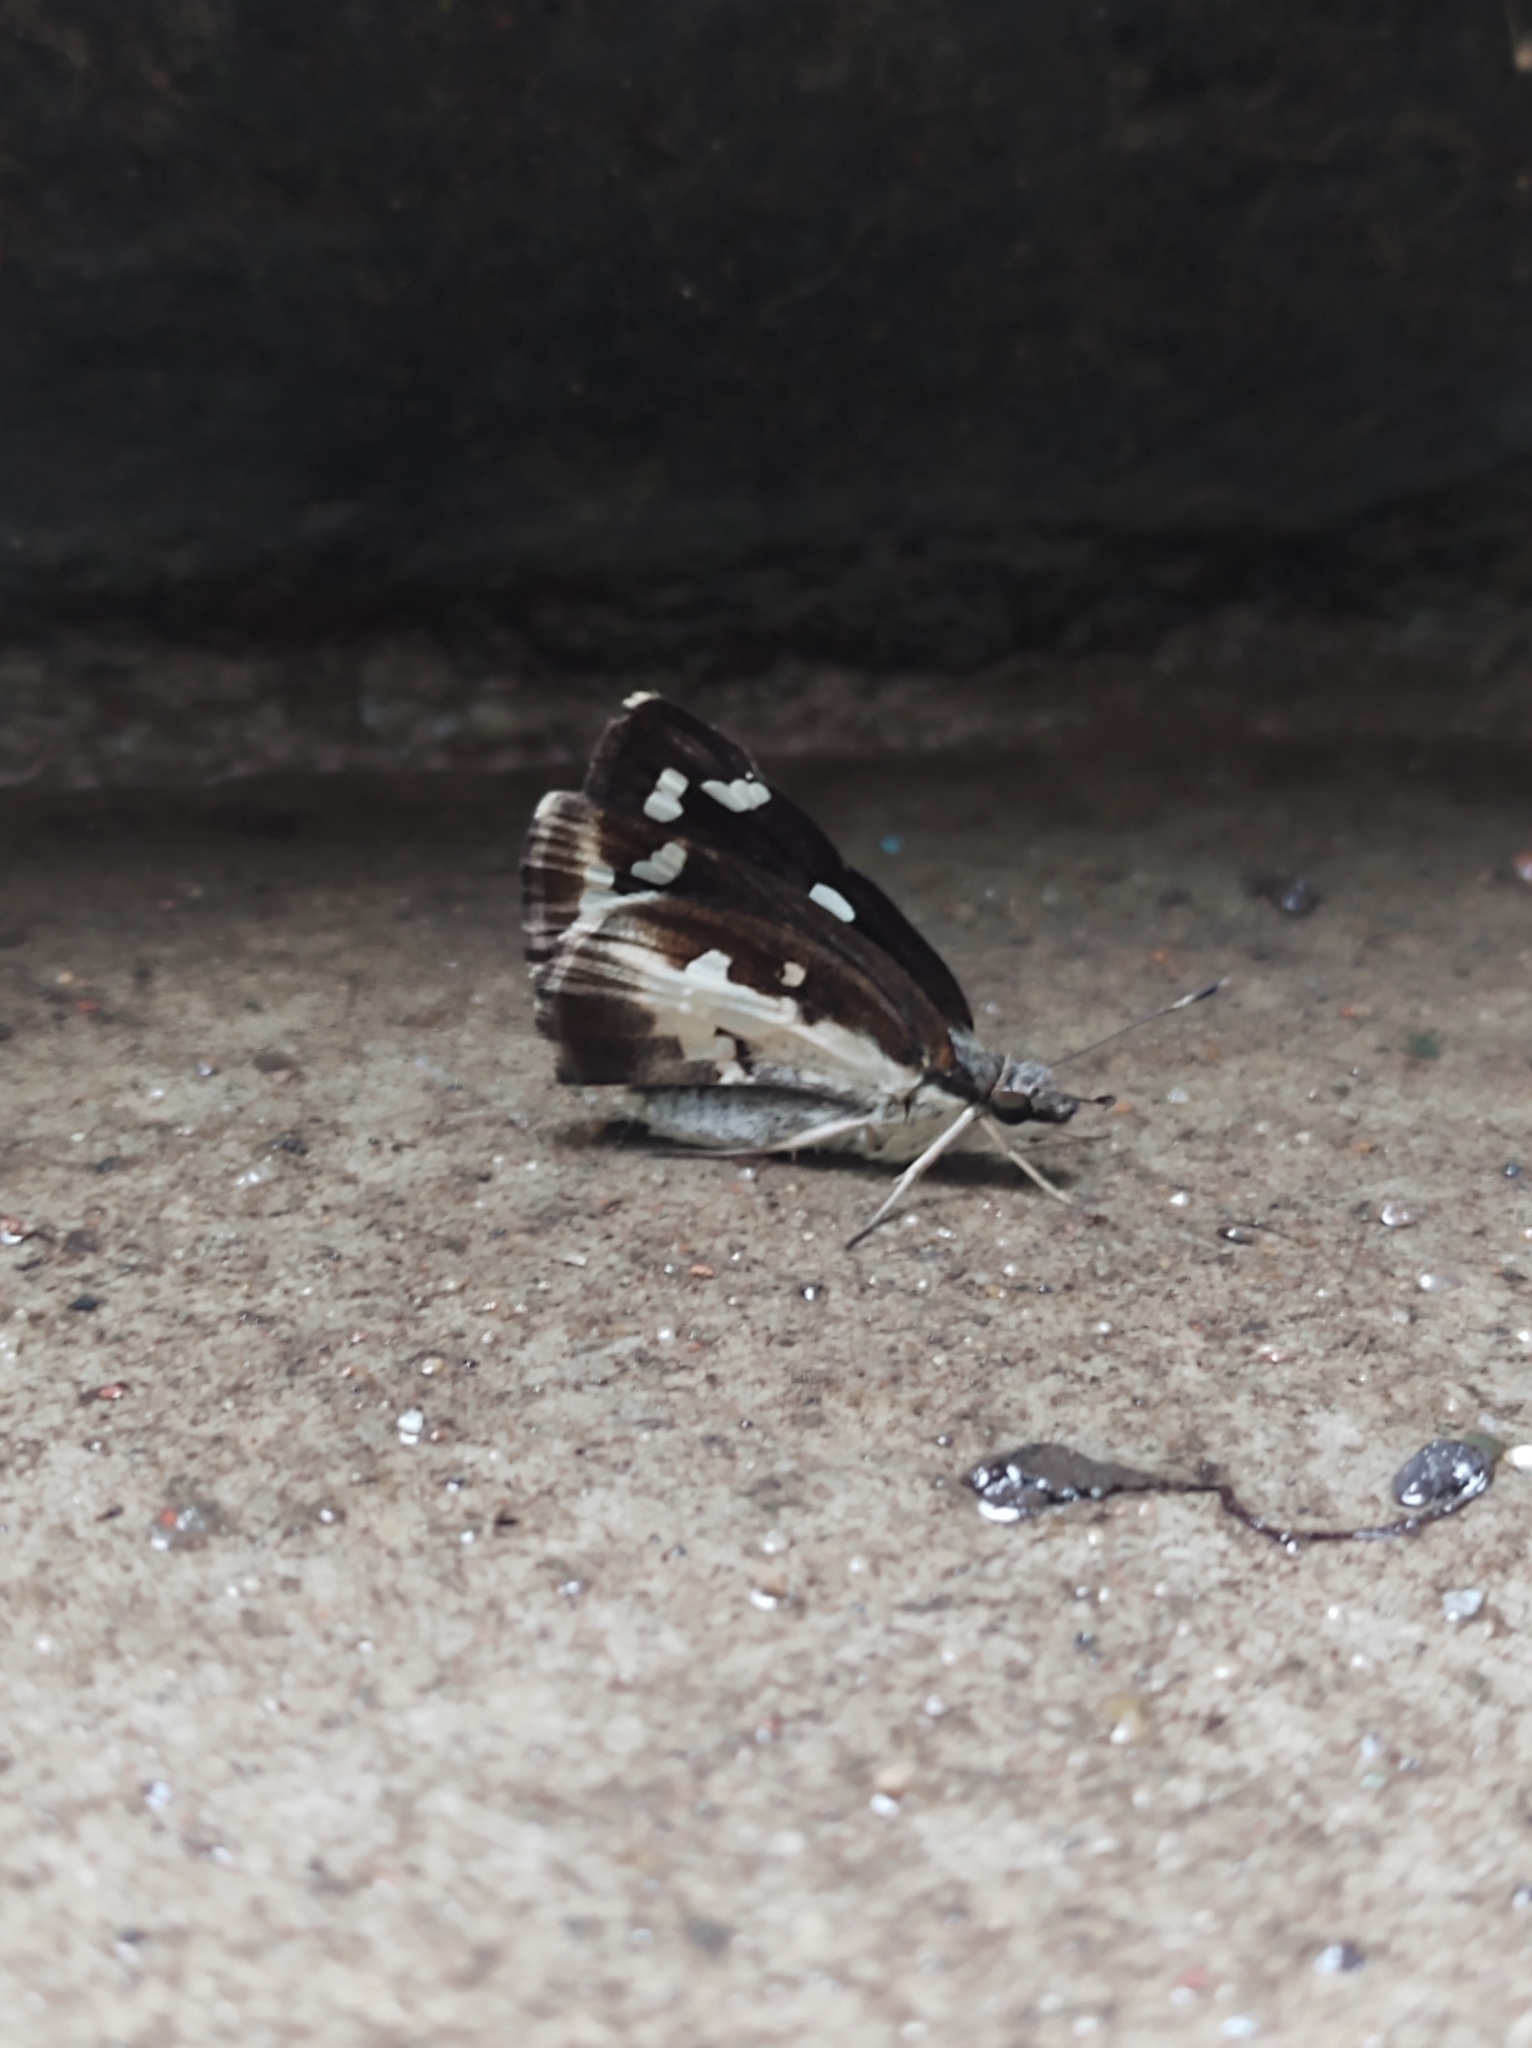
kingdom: Animalia
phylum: Arthropoda
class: Insecta
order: Lepidoptera
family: Hesperiidae
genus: Udaspes
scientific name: Udaspes folus
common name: Grass demon
